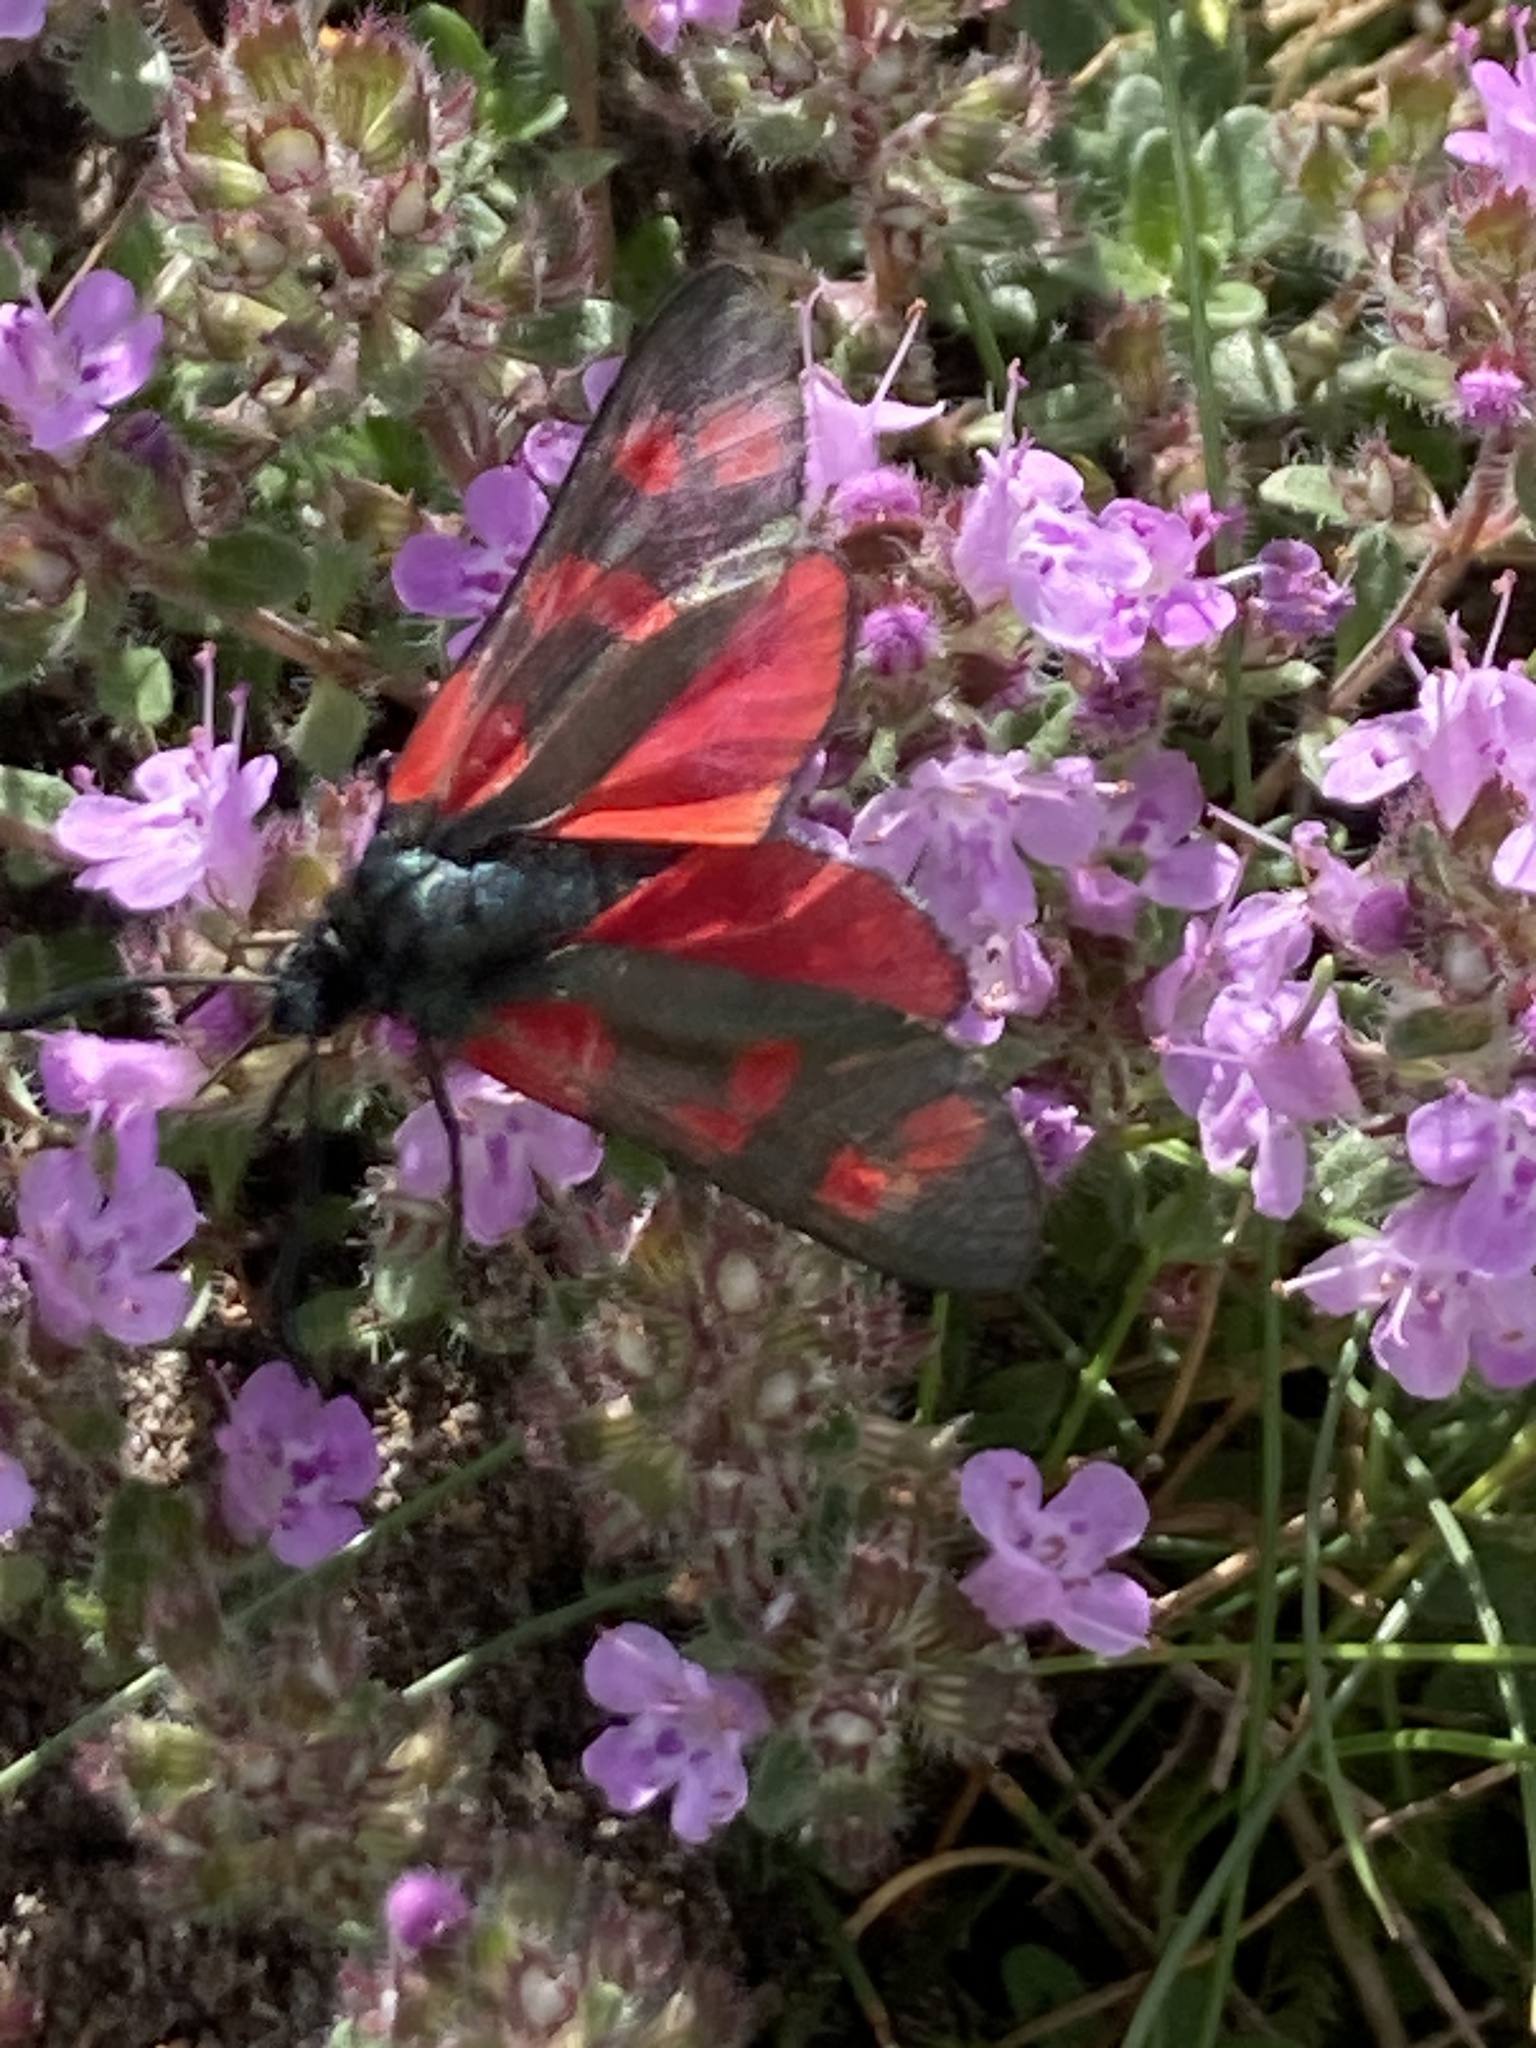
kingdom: Animalia
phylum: Arthropoda
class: Insecta
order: Lepidoptera
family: Zygaenidae
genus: Zygaena
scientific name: Zygaena filipendulae
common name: Six-spot burnet
